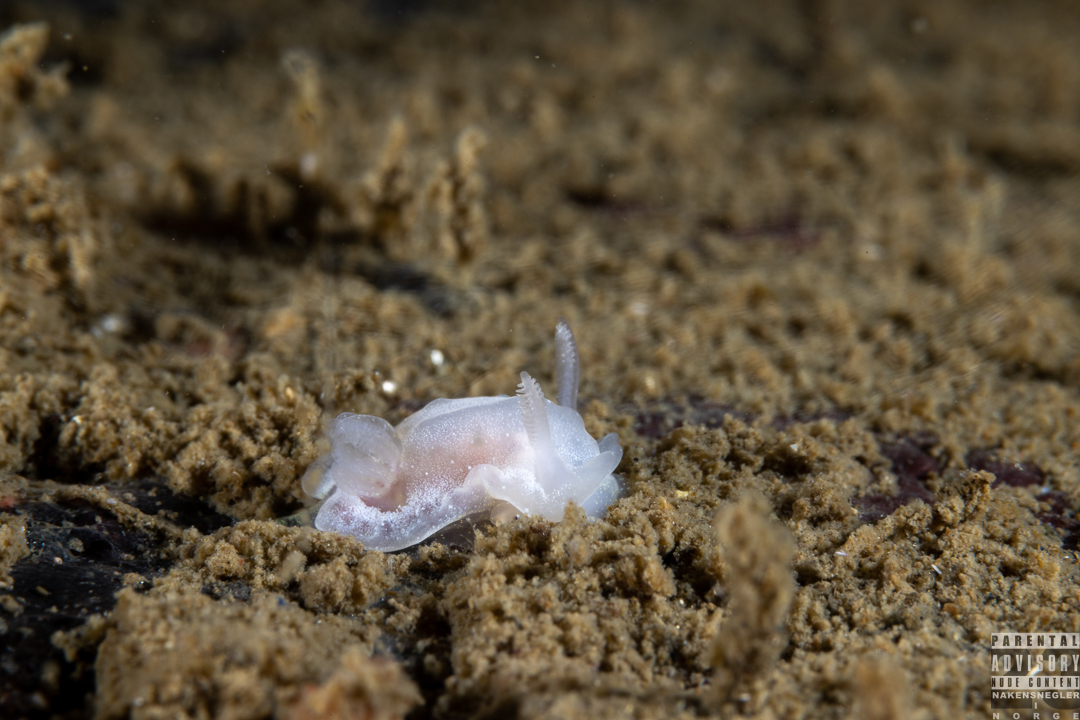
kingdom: Animalia
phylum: Mollusca
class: Gastropoda
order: Nudibranchia
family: Goniodorididae
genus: Okenia
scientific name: Okenia
